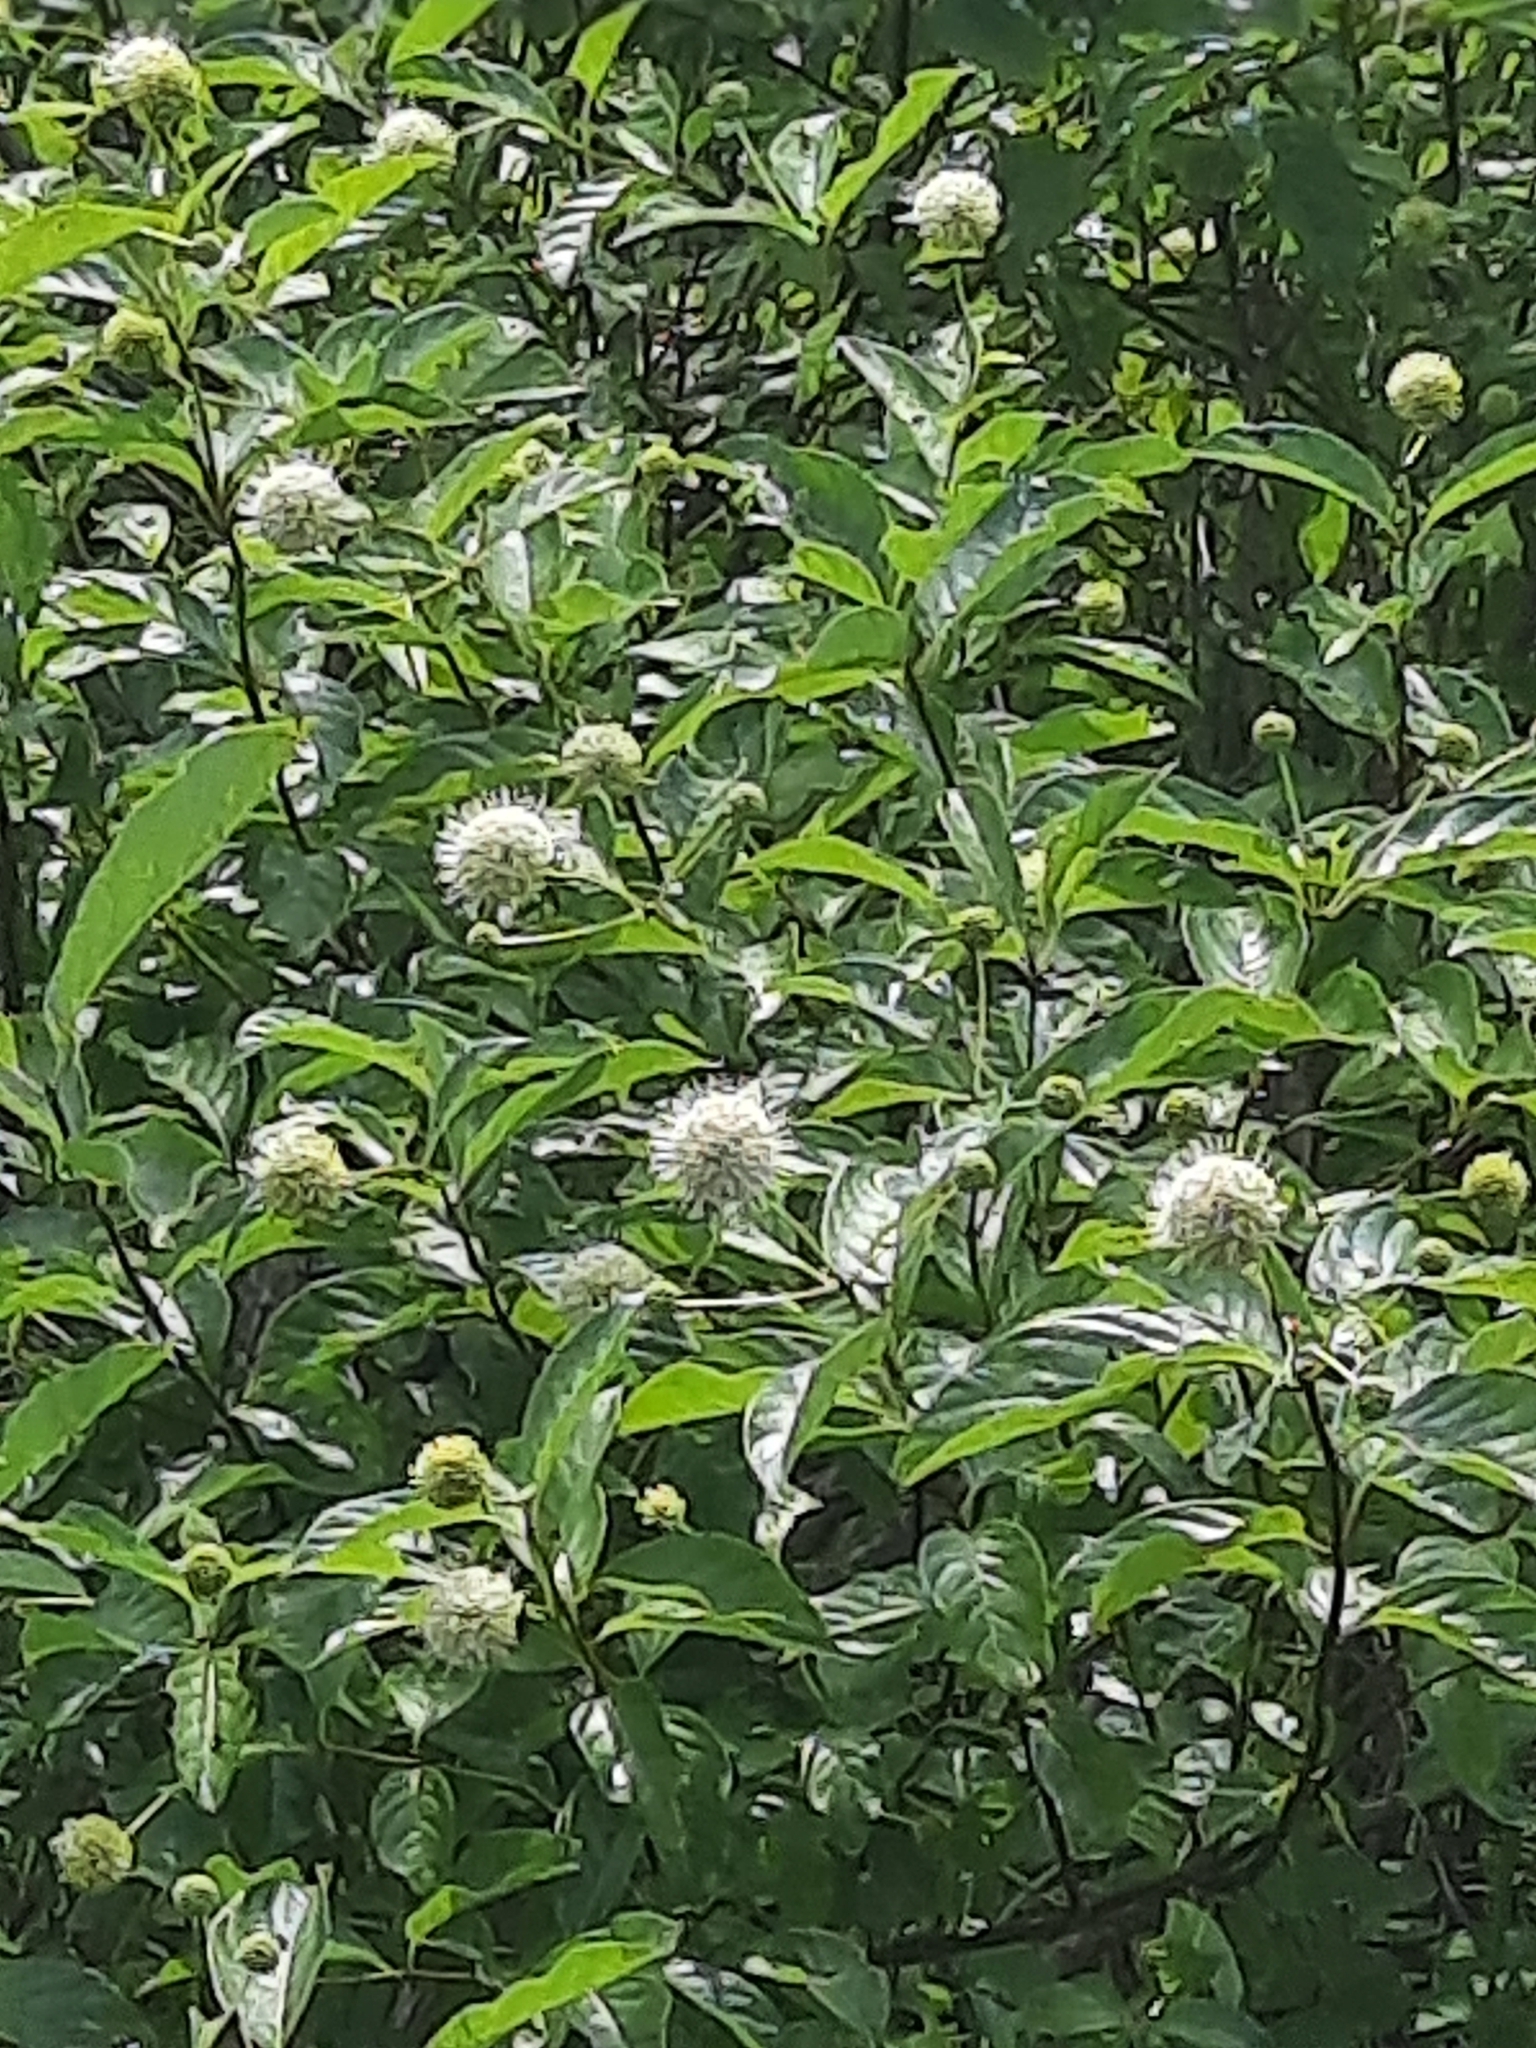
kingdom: Plantae
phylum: Tracheophyta
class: Magnoliopsida
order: Gentianales
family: Rubiaceae
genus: Cephalanthus
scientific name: Cephalanthus occidentalis
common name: Button-willow
